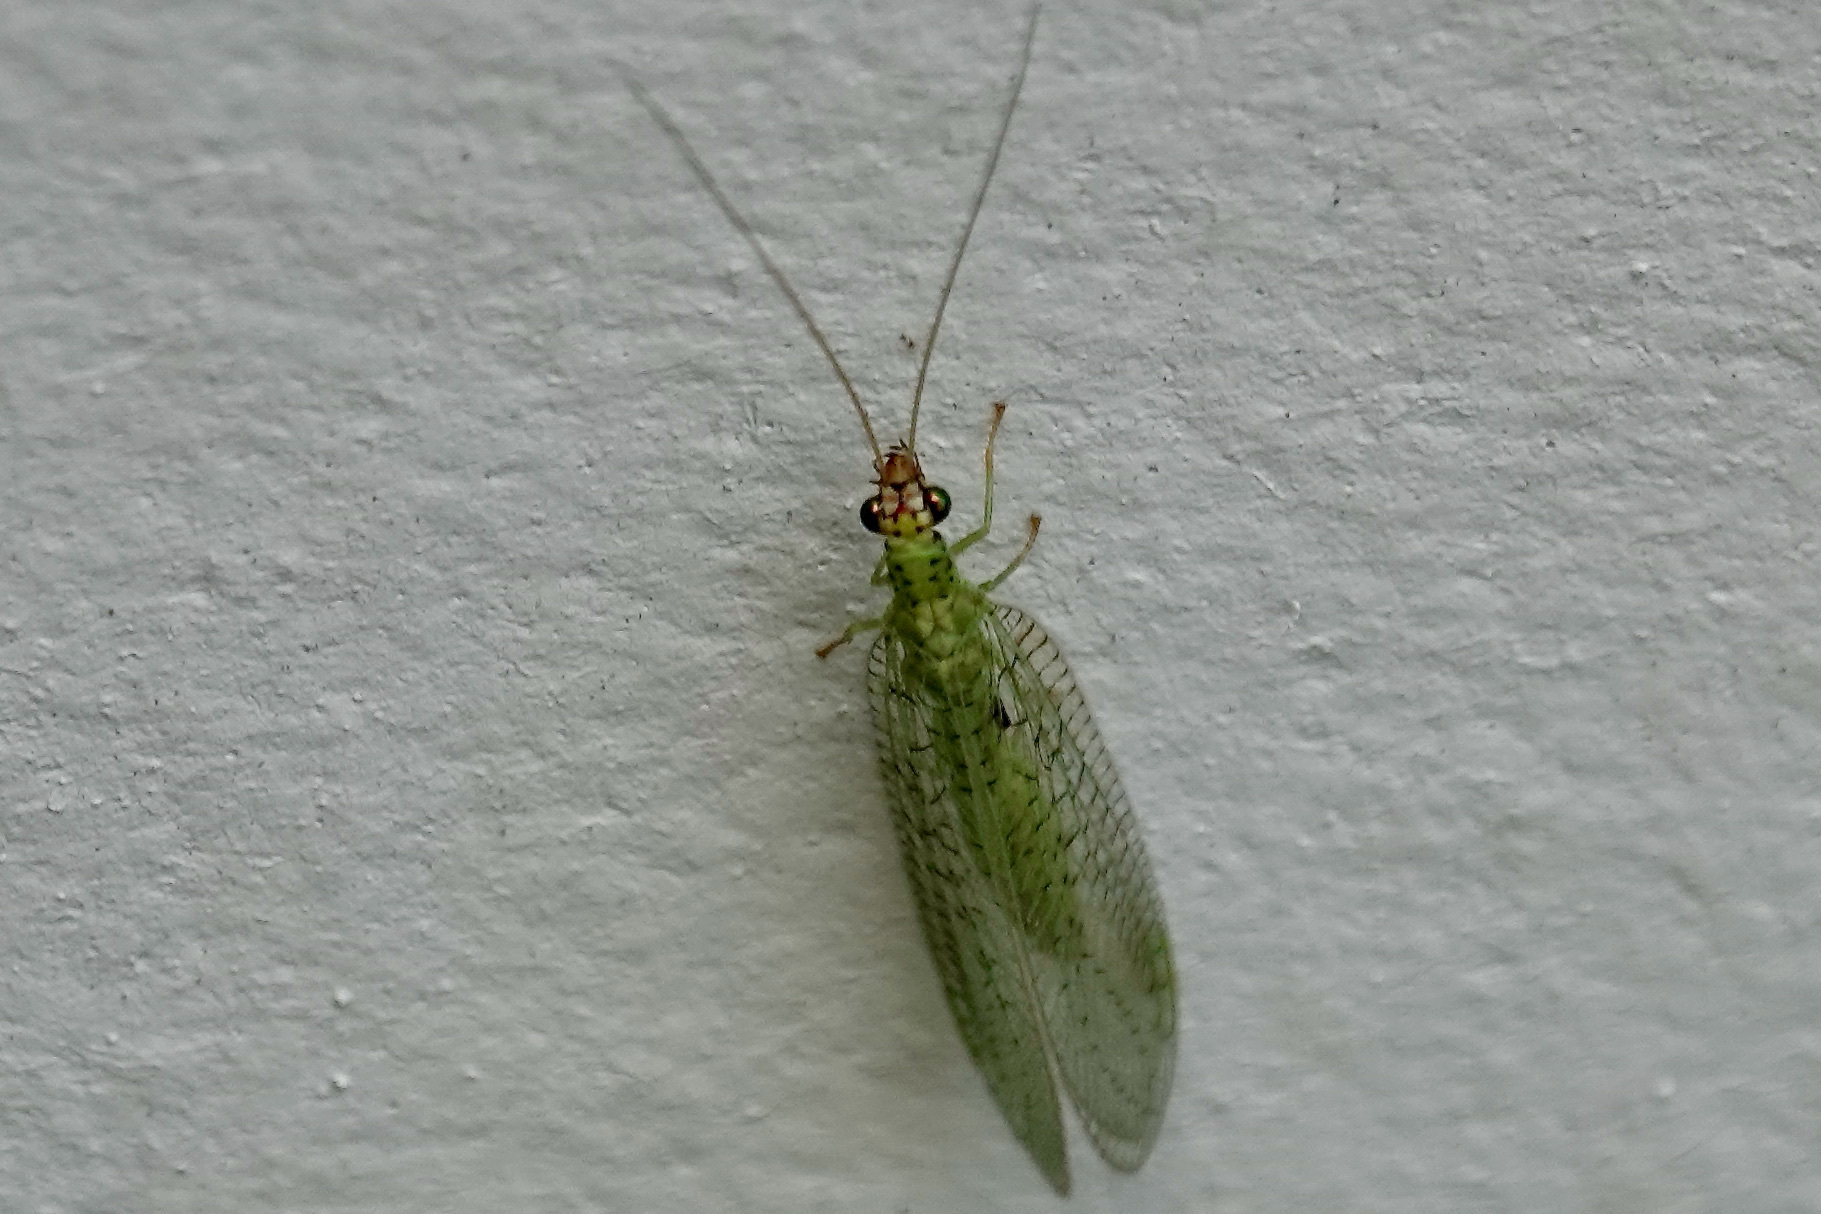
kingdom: Animalia
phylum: Arthropoda
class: Insecta
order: Neuroptera
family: Chrysopidae
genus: Chrysopa
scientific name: Chrysopa oculata
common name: Golden-eyed lacewing
